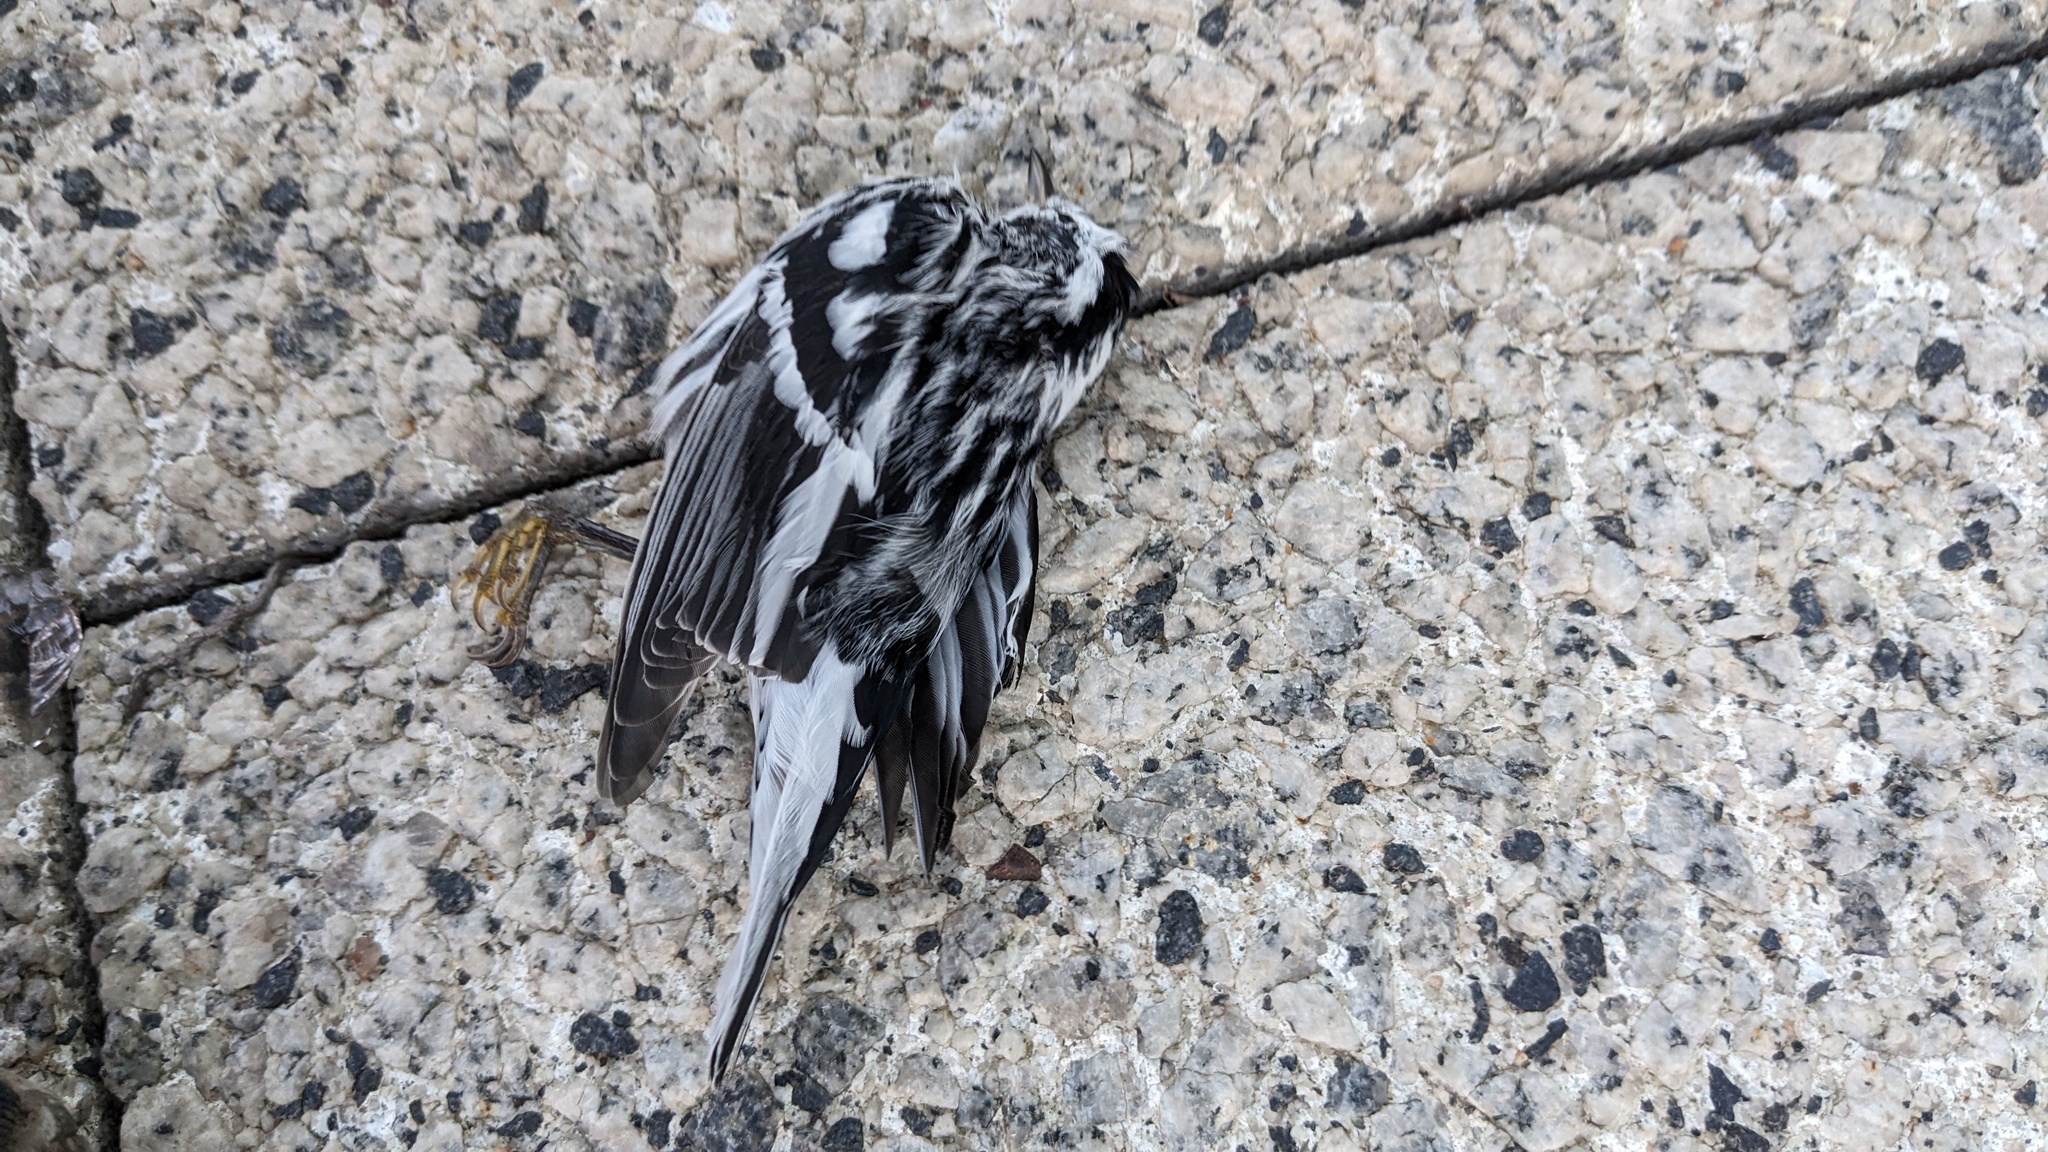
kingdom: Animalia
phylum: Chordata
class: Aves
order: Passeriformes
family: Parulidae
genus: Mniotilta
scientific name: Mniotilta varia
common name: Black-and-white warbler
